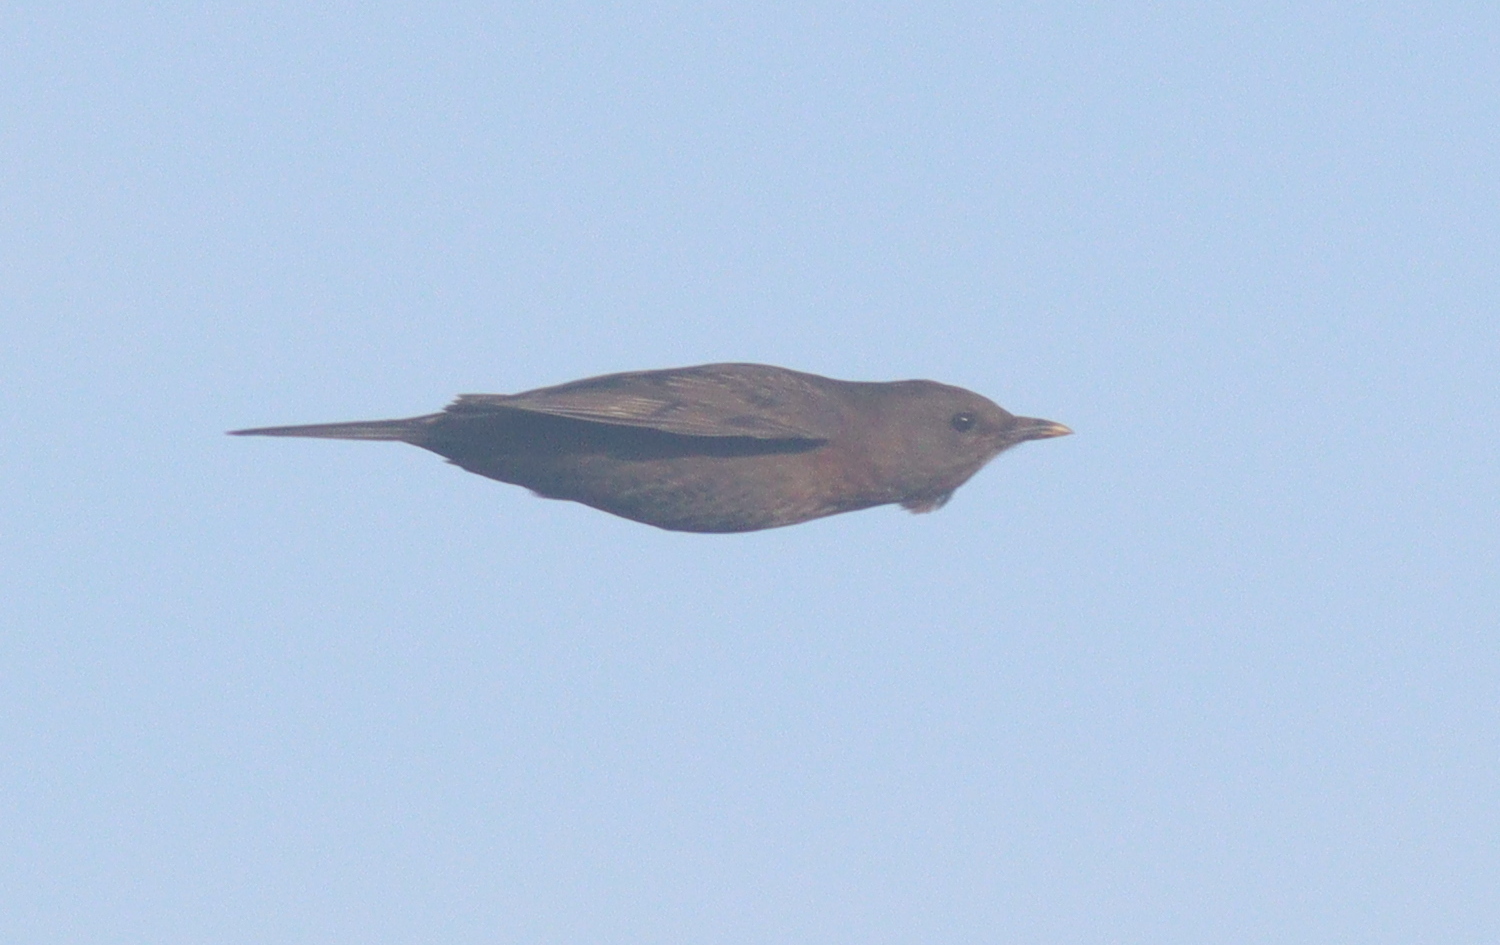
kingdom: Animalia
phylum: Chordata
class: Aves
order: Passeriformes
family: Turdidae
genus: Turdus
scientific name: Turdus merula
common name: Common blackbird
